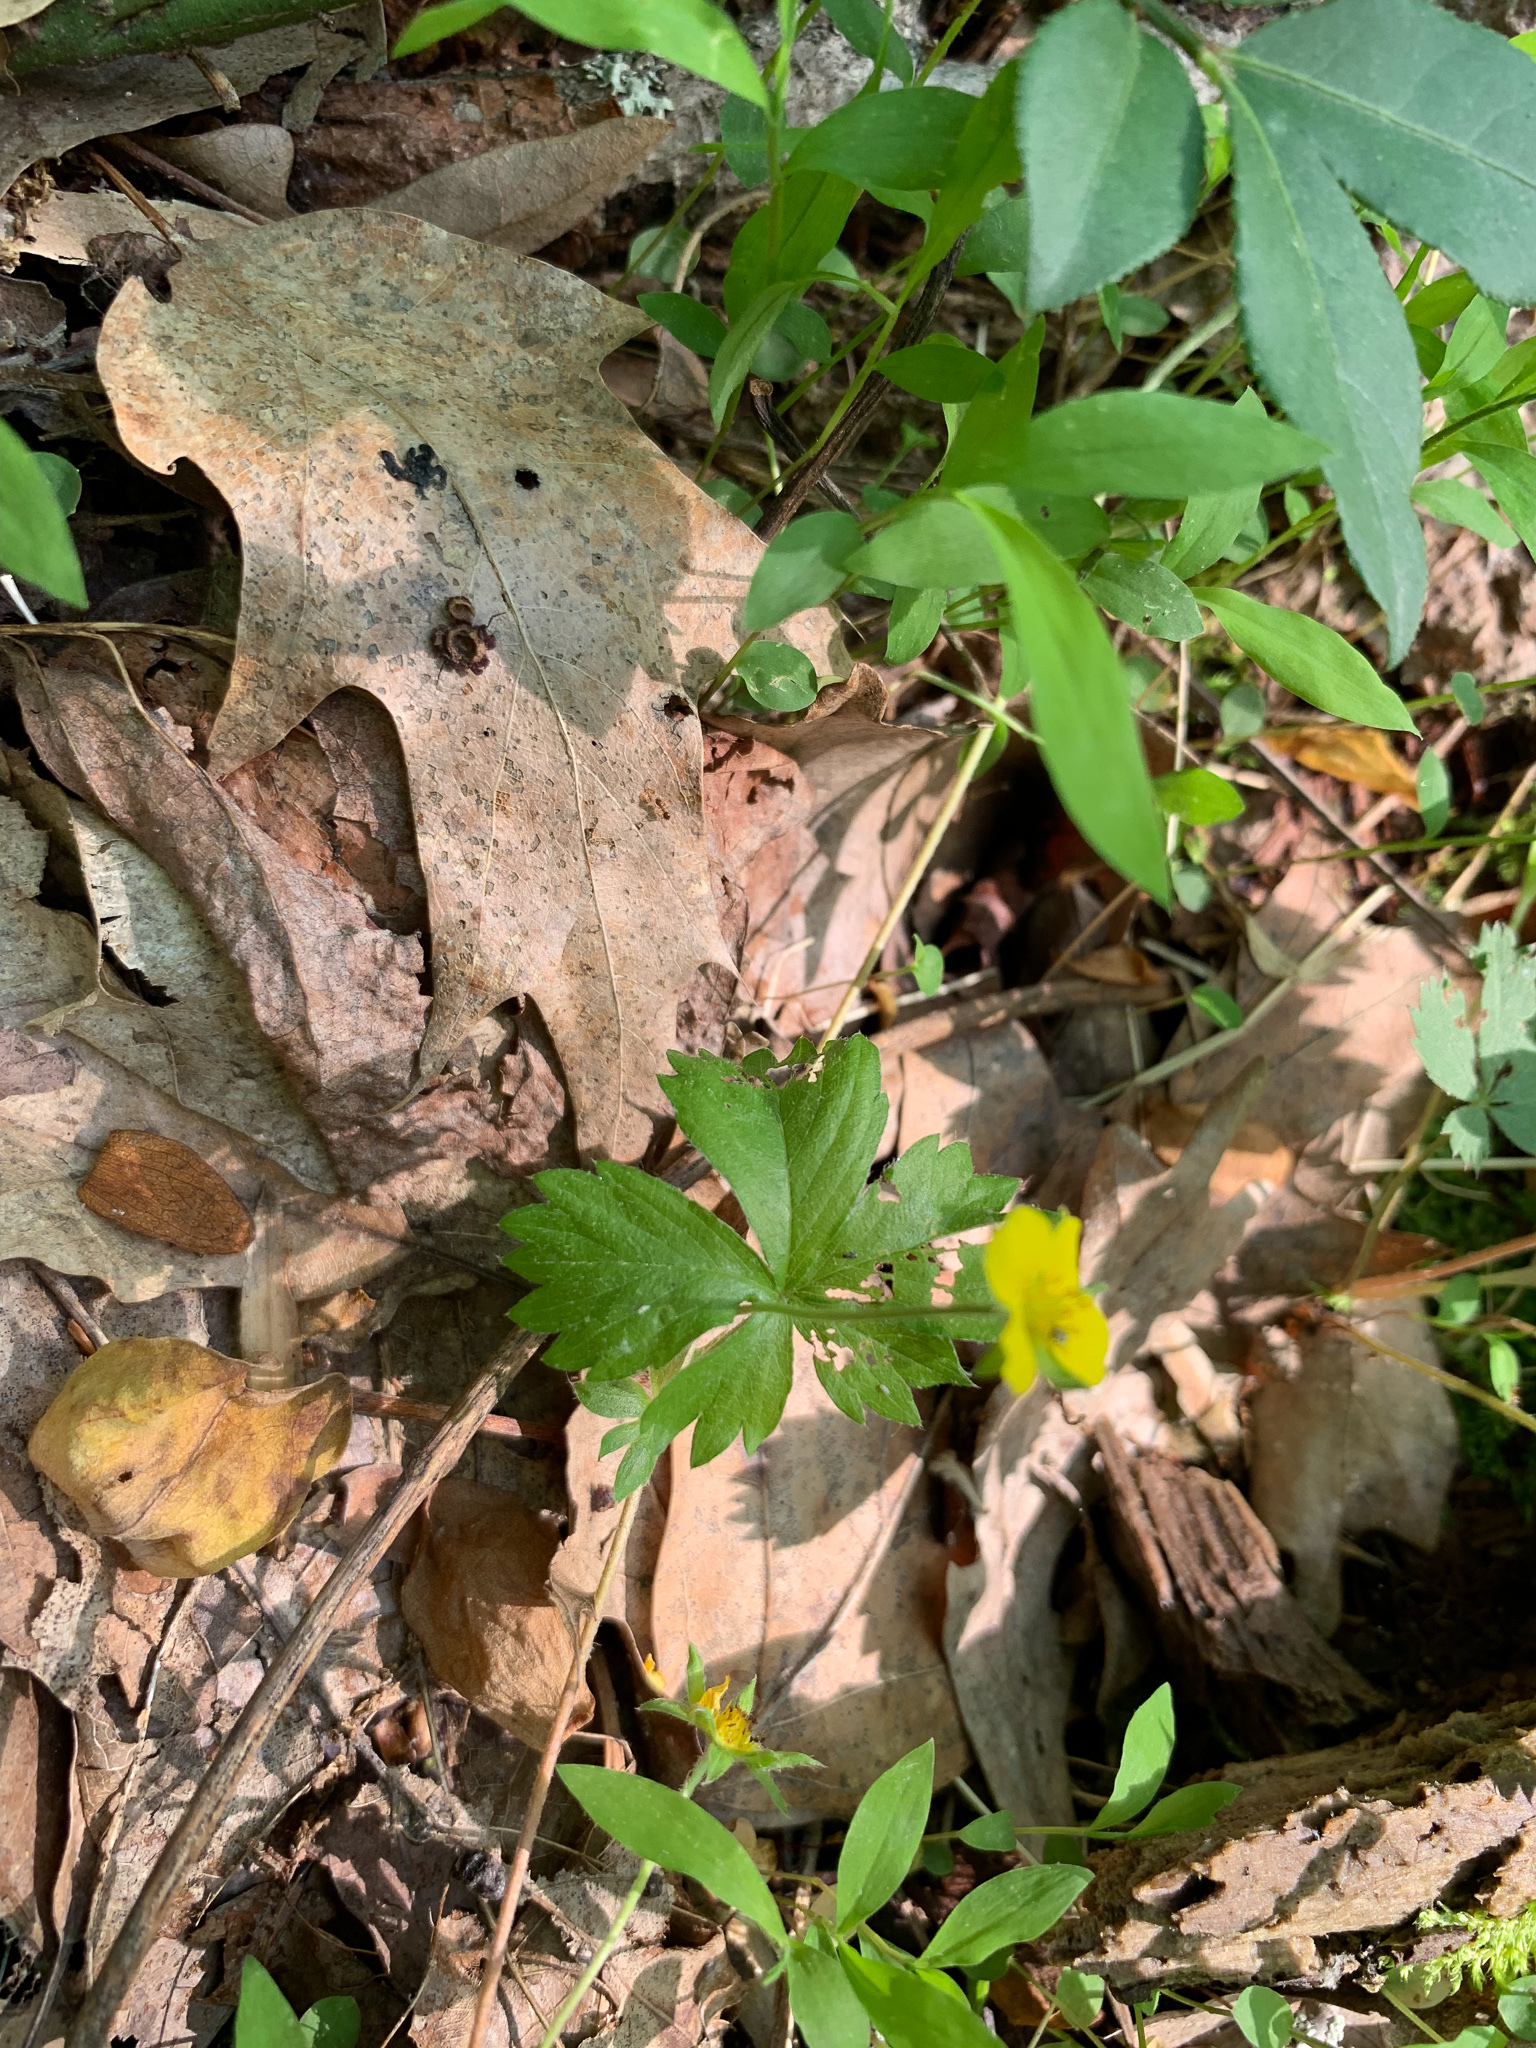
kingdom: Plantae
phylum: Tracheophyta
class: Magnoliopsida
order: Rosales
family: Rosaceae
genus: Potentilla
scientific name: Potentilla simplex
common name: Old field cinquefoil
